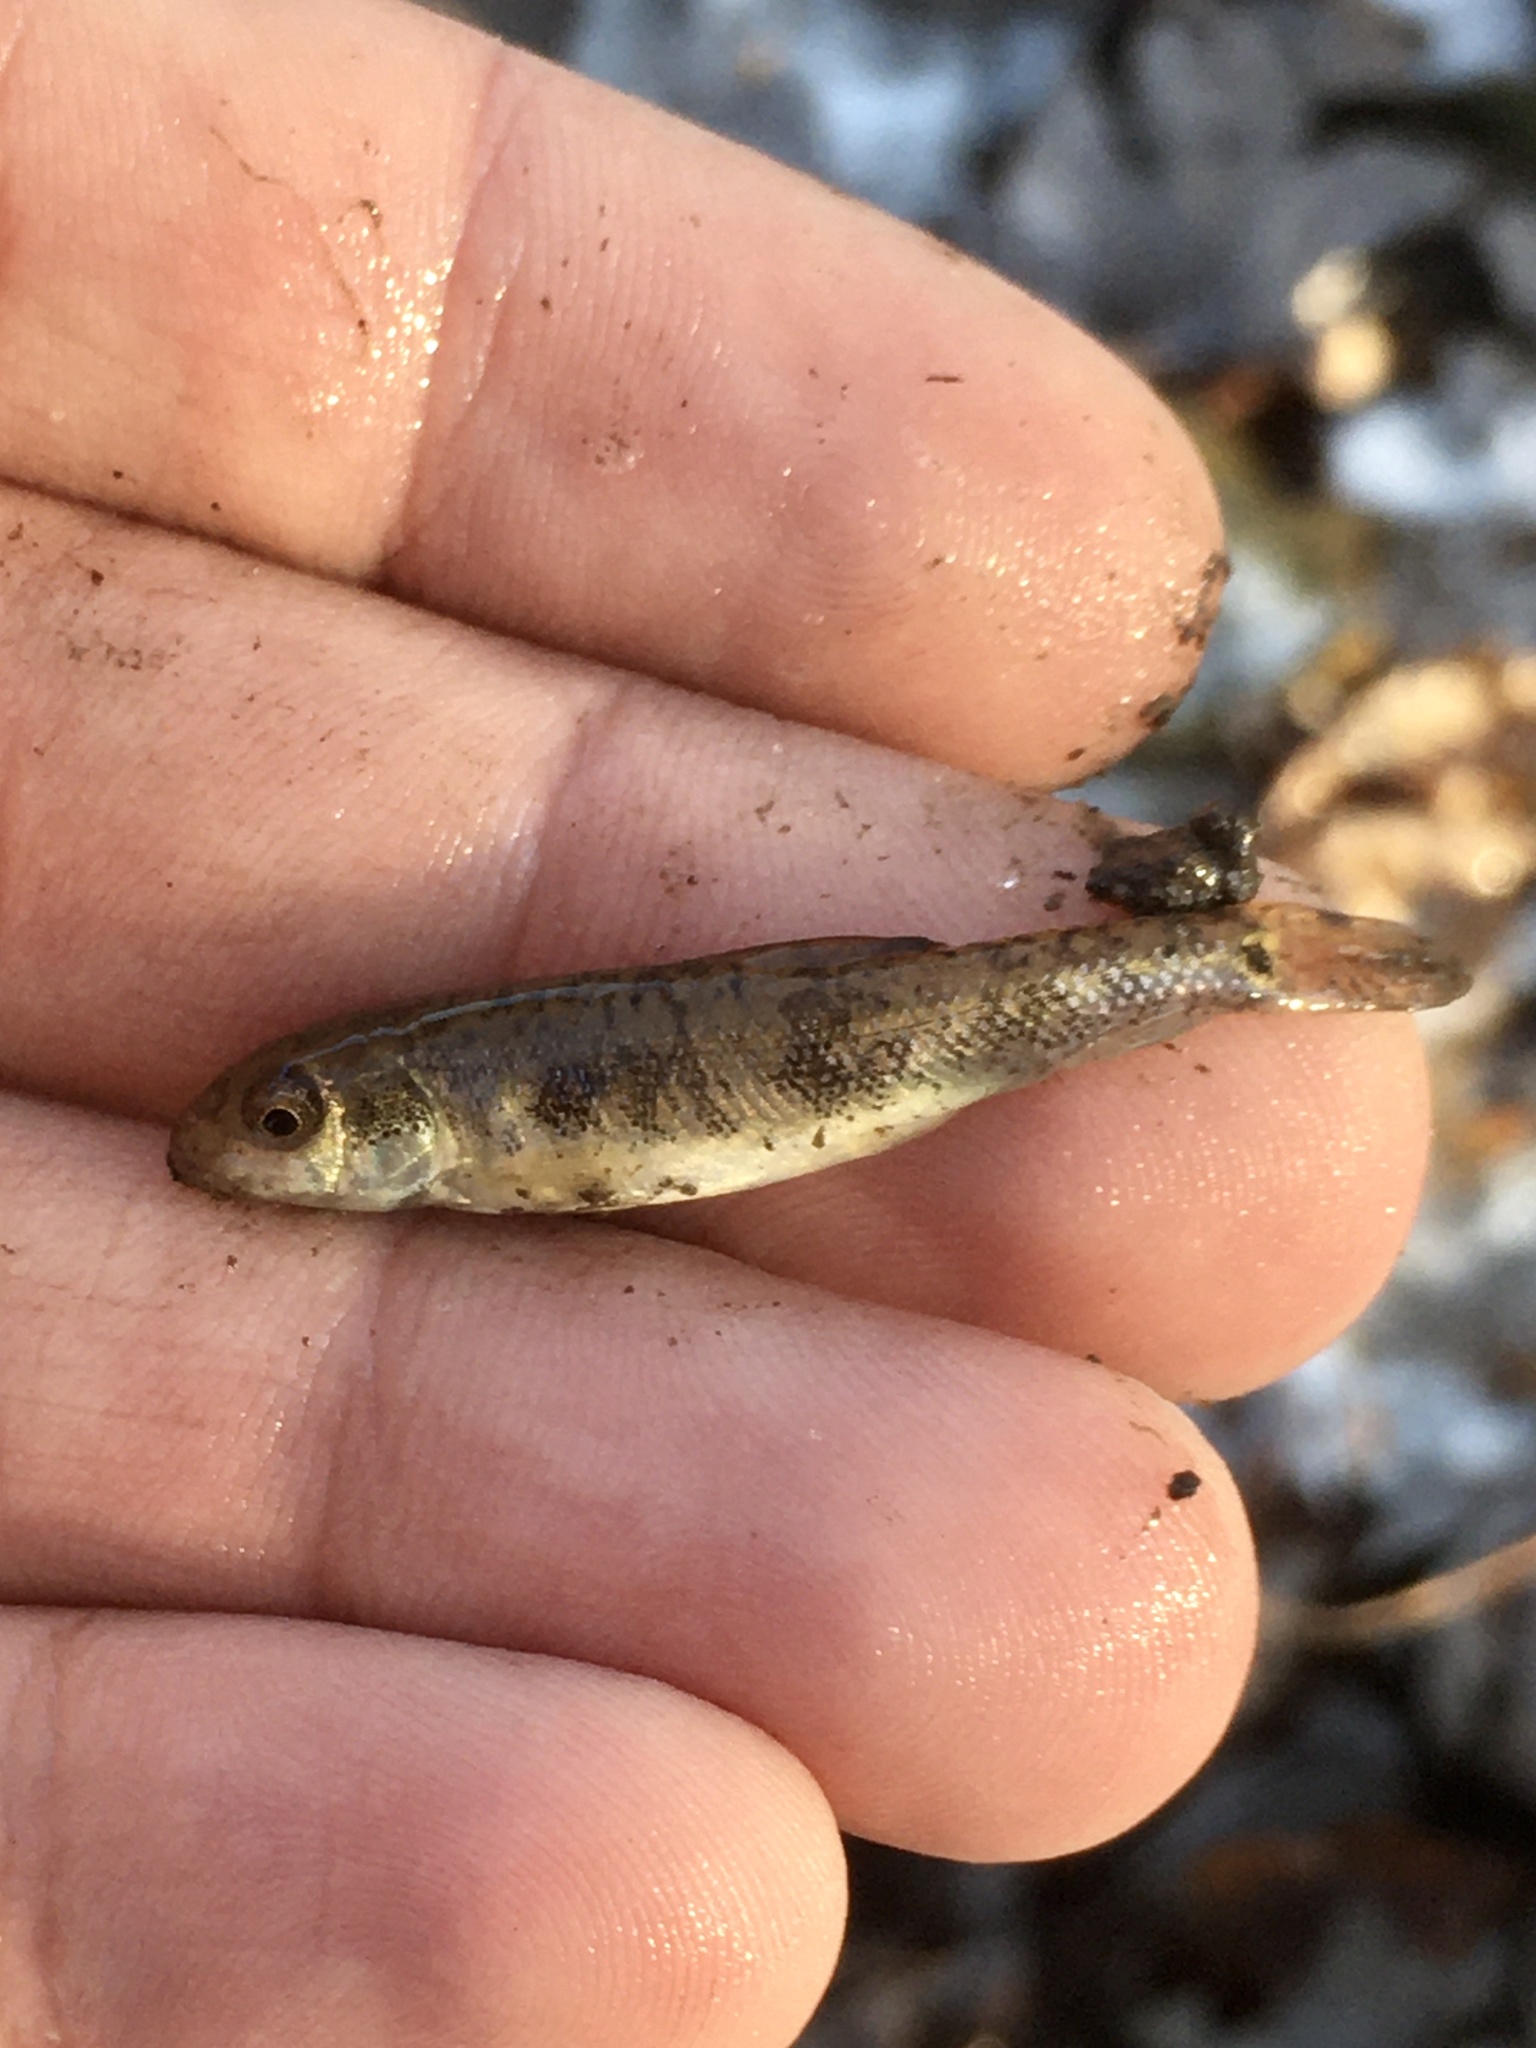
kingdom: Animalia
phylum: Chordata
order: Cypriniformes
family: Catostomidae
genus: Catostomus
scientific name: Catostomus commersonii
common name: White sucker
